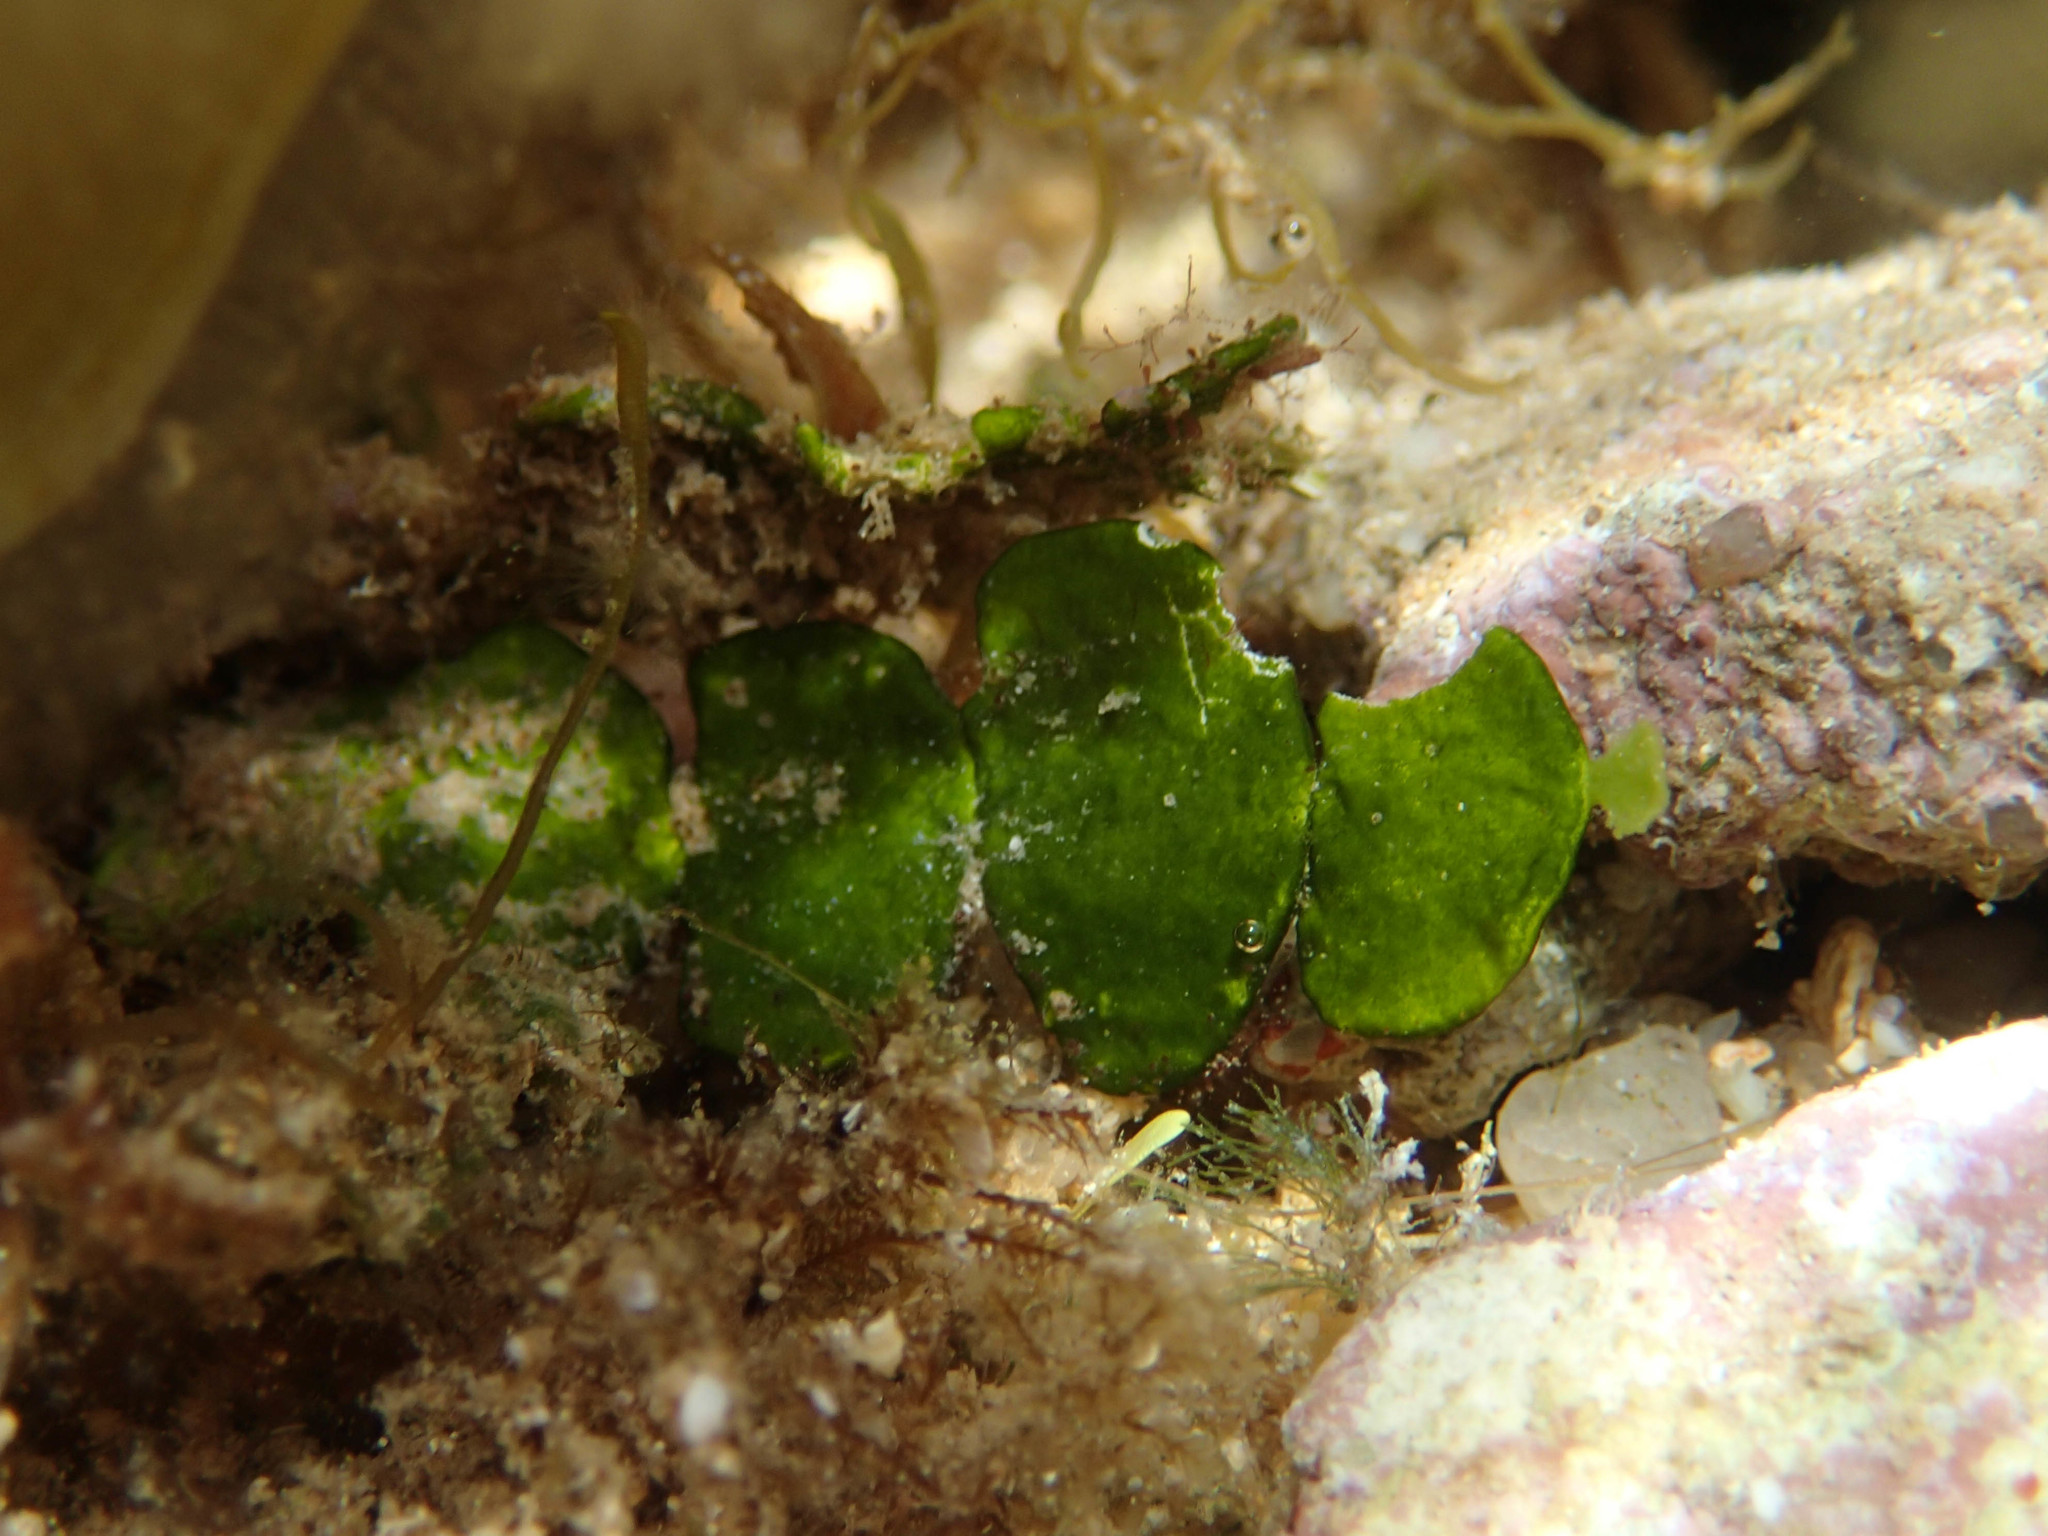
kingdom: Plantae
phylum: Chlorophyta
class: Ulvophyceae
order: Bryopsidales
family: Halimedaceae
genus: Halimeda
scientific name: Halimeda tuna
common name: Stalked lettuce leaf algae
